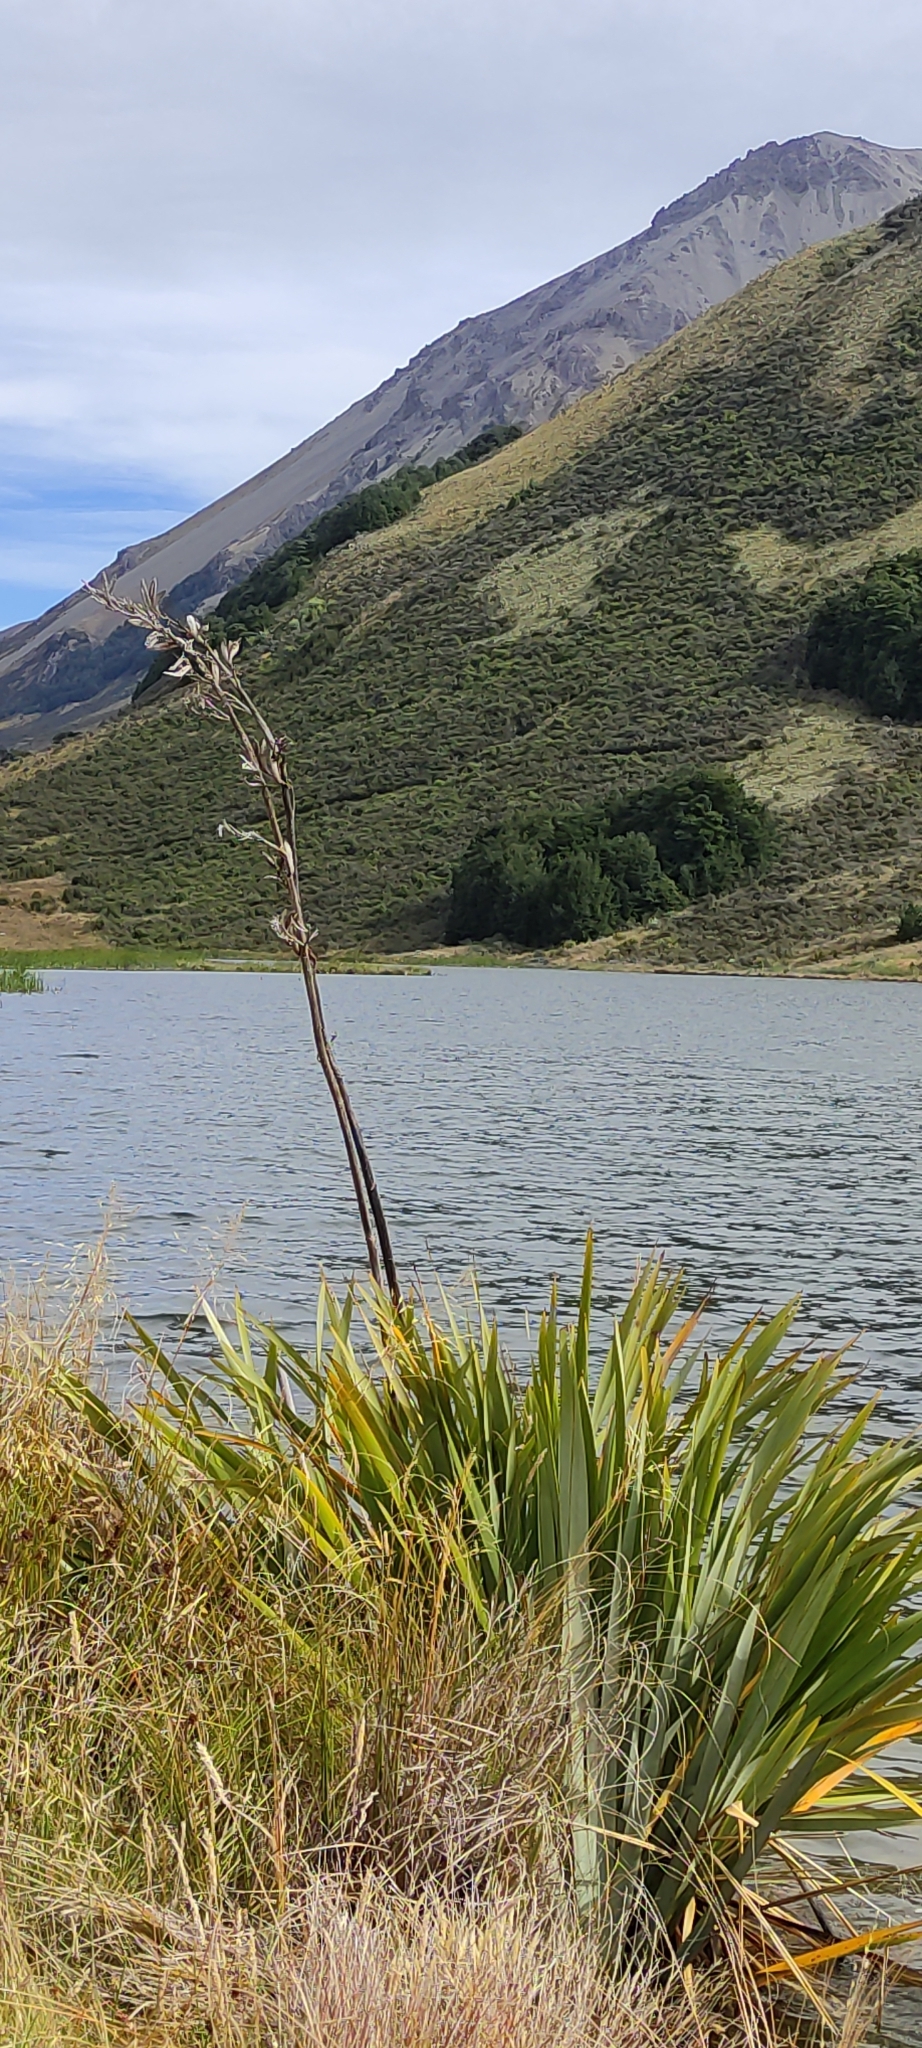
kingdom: Plantae
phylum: Tracheophyta
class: Liliopsida
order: Asparagales
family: Asphodelaceae
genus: Phormium
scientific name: Phormium tenax
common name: New zealand flax
